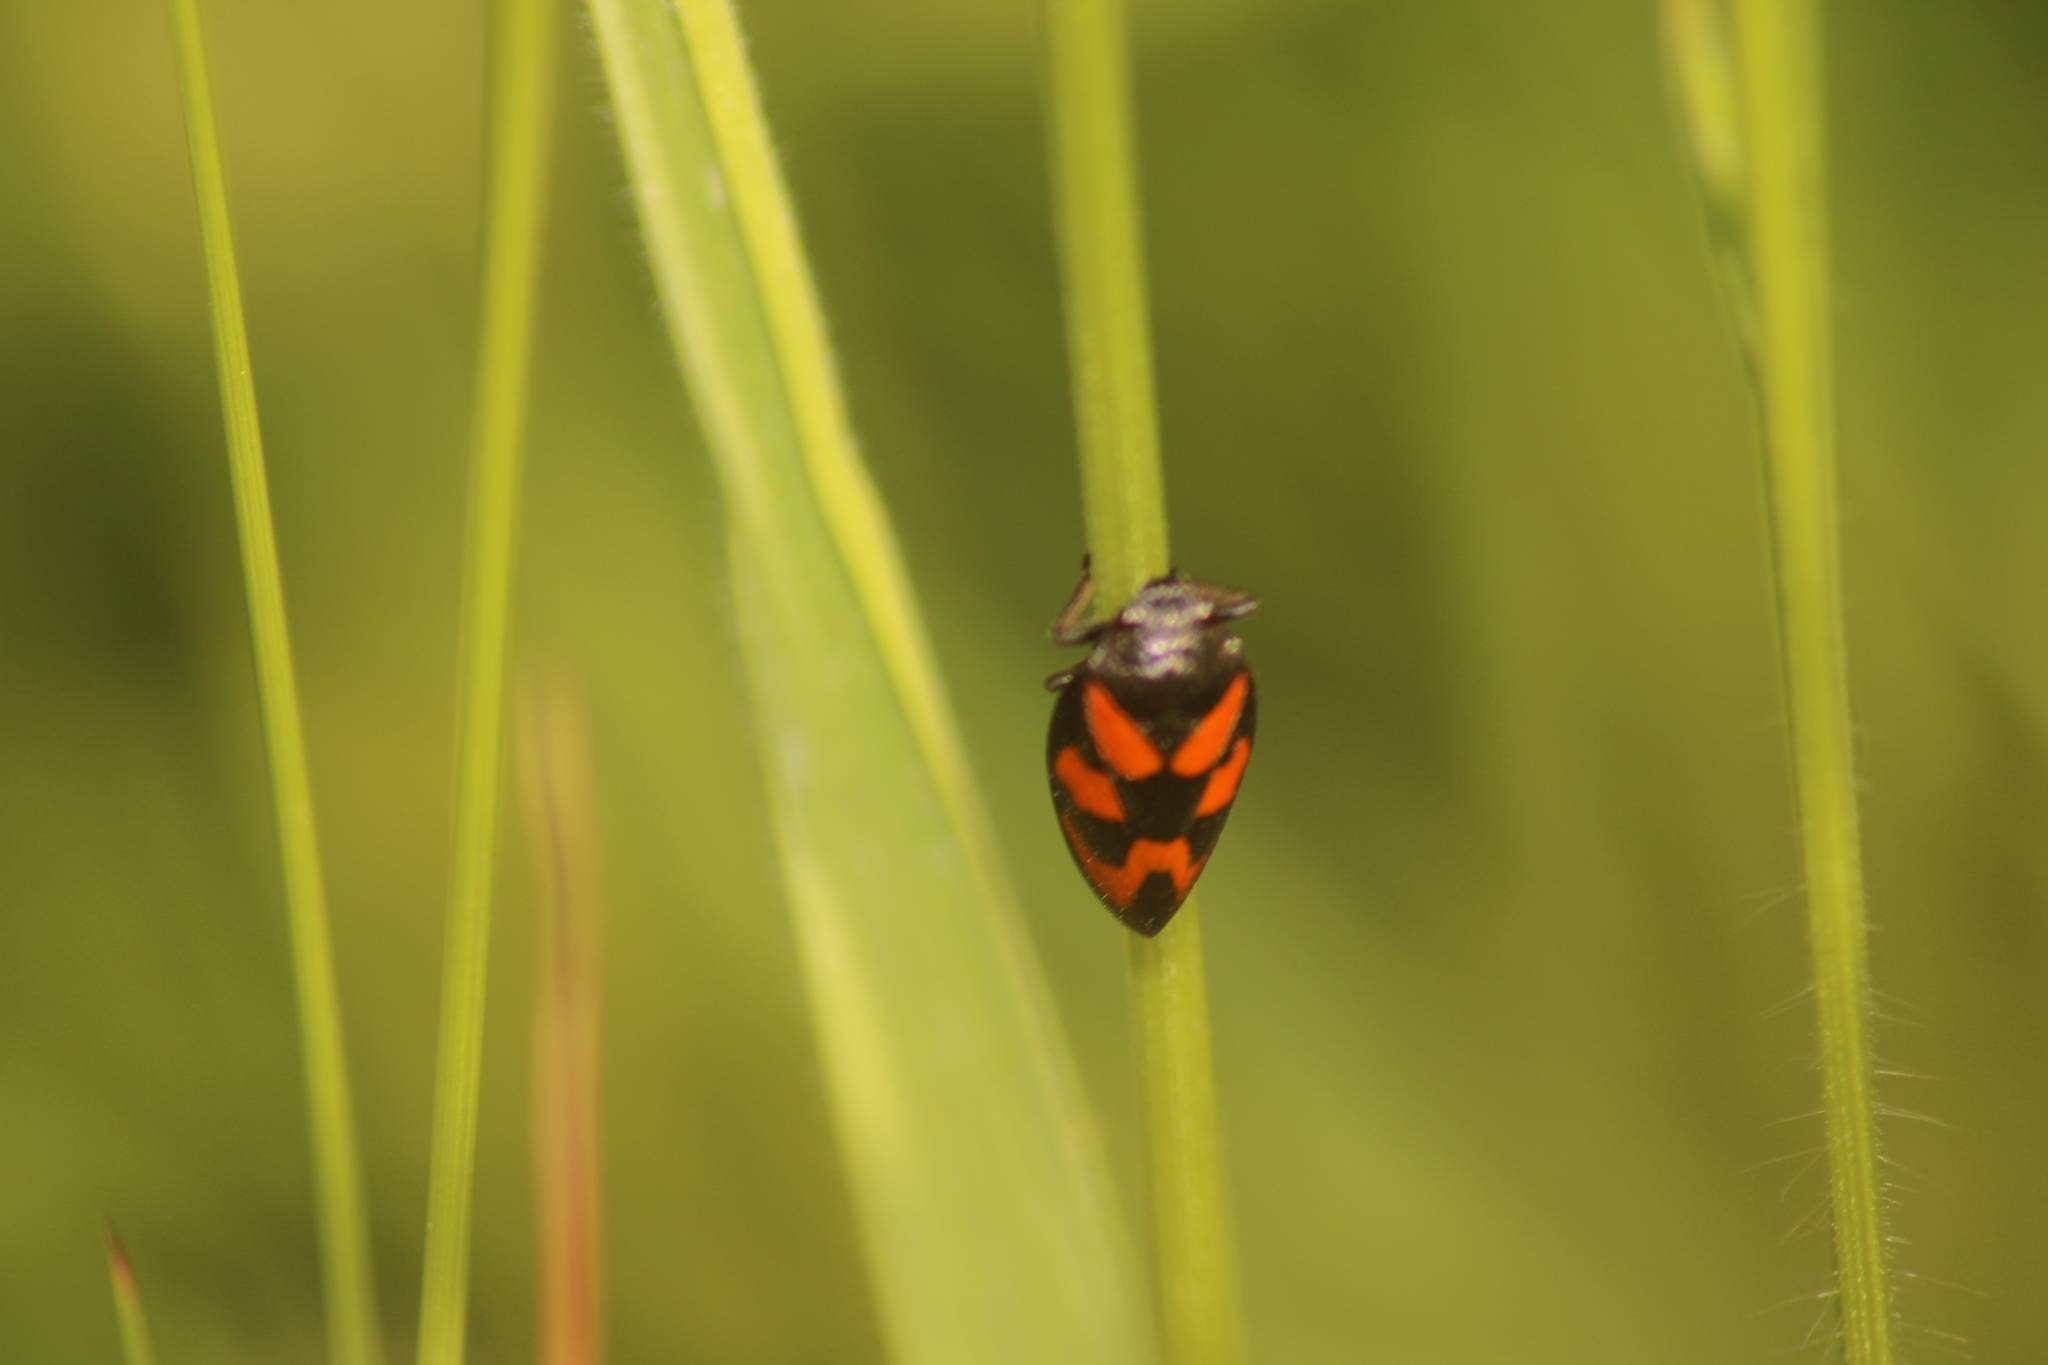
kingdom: Animalia
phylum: Arthropoda
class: Insecta
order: Hemiptera
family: Cercopidae
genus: Cercopis
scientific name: Cercopis vulnerata
